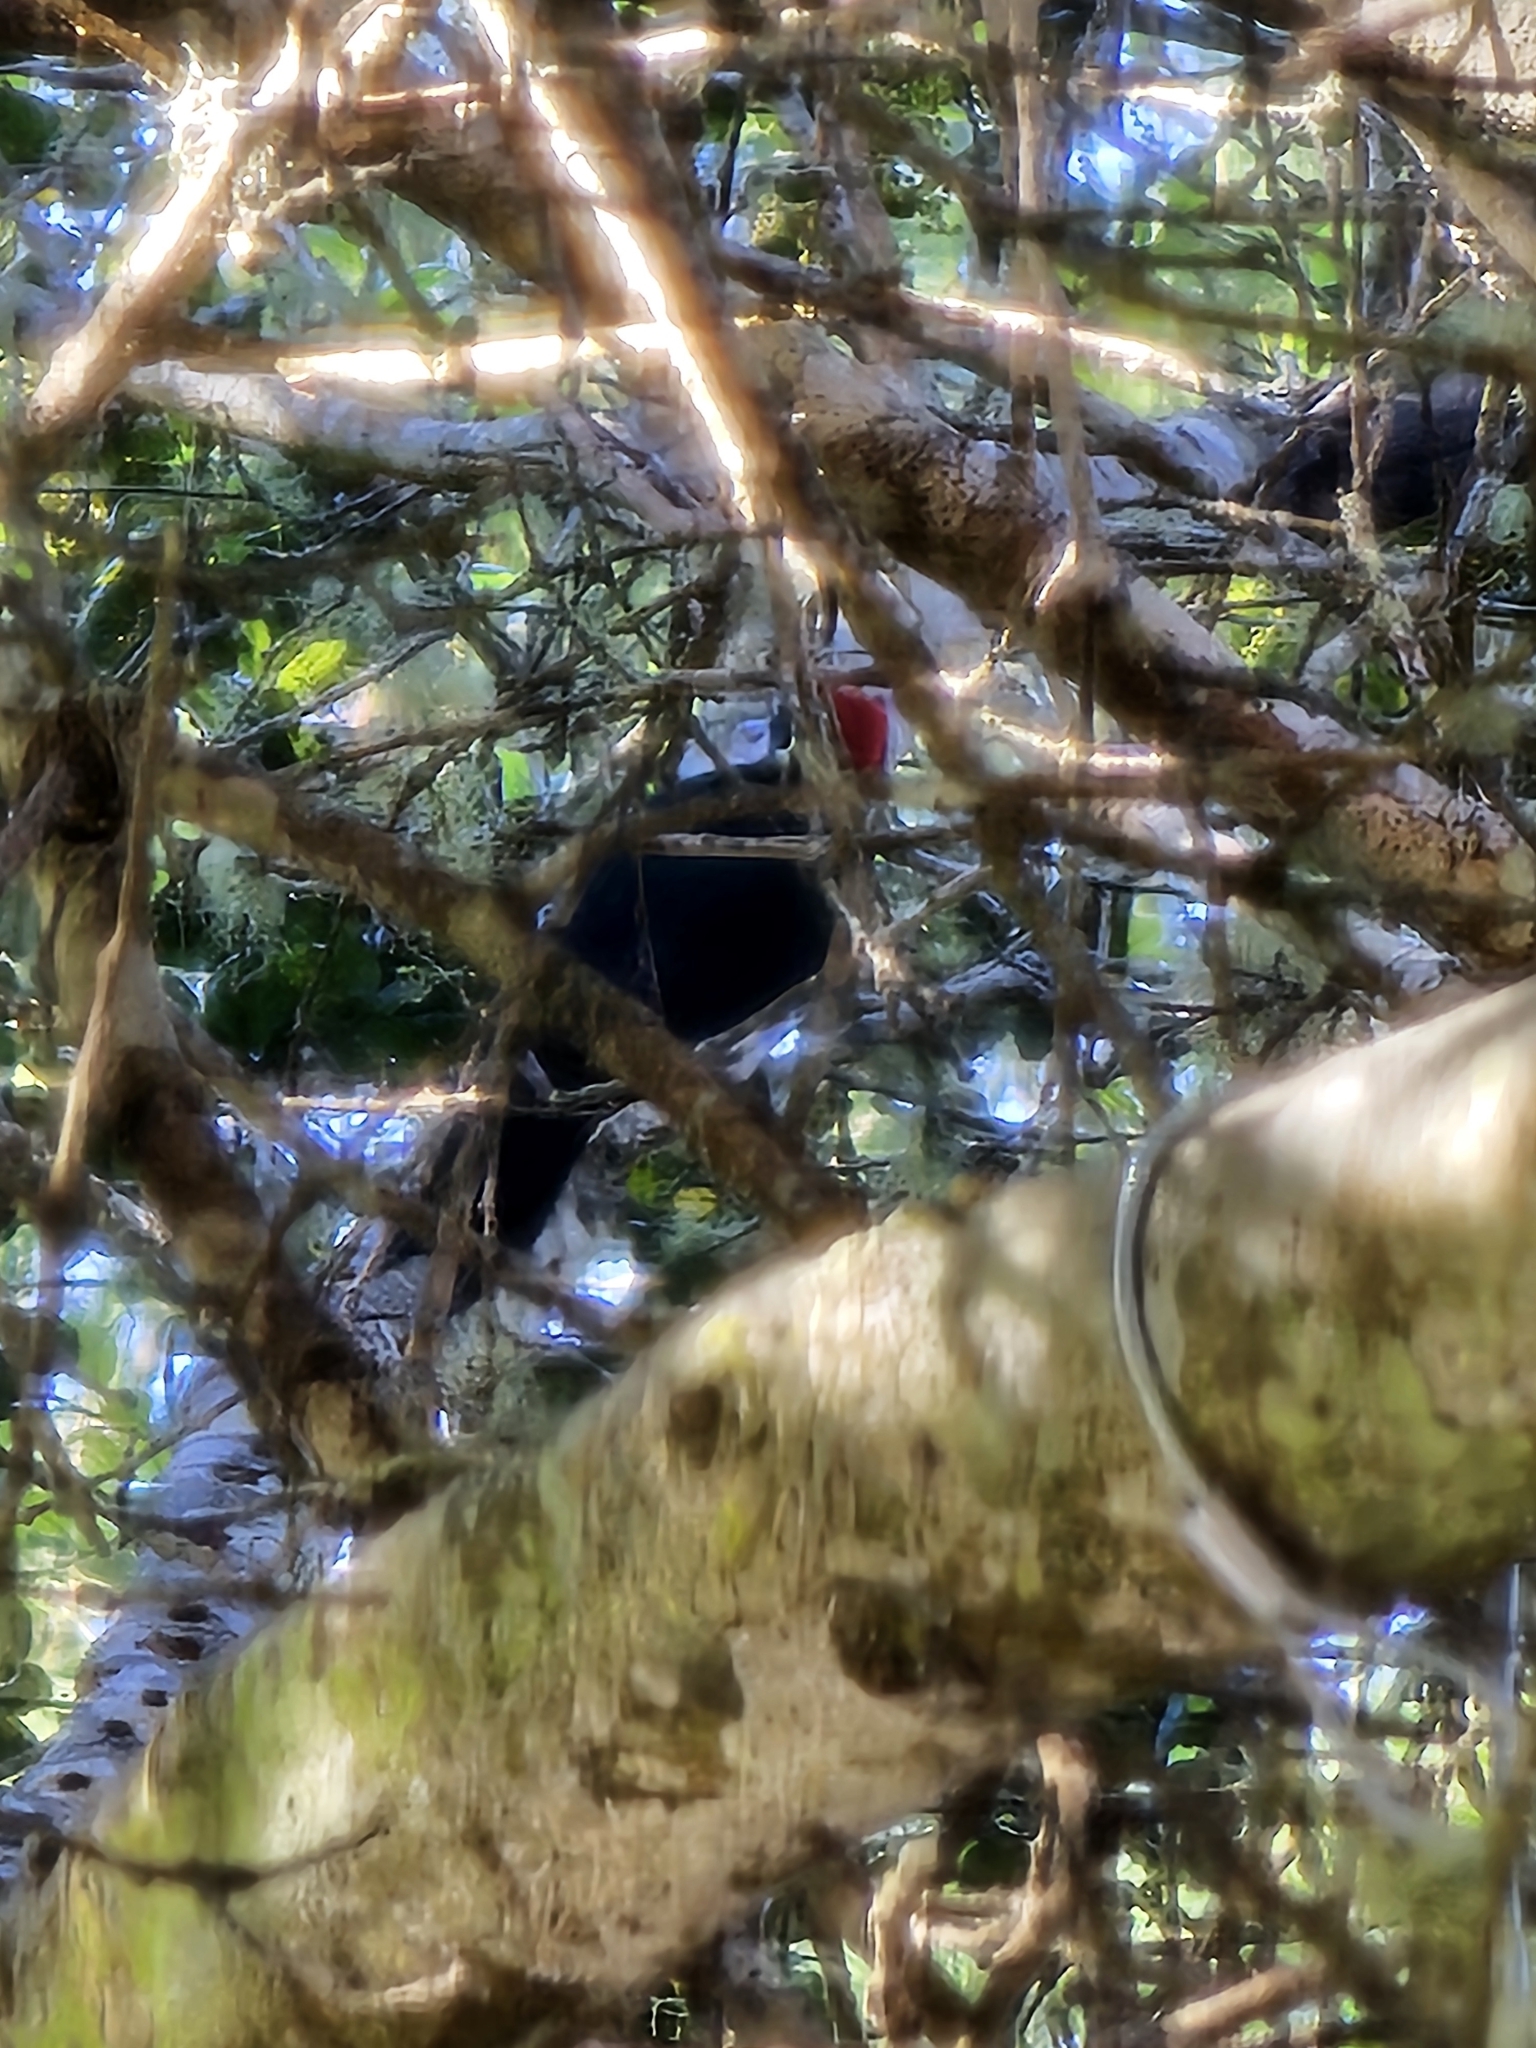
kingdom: Animalia
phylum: Chordata
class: Aves
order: Piciformes
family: Picidae
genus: Melanerpes
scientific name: Melanerpes formicivorus
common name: Acorn woodpecker
